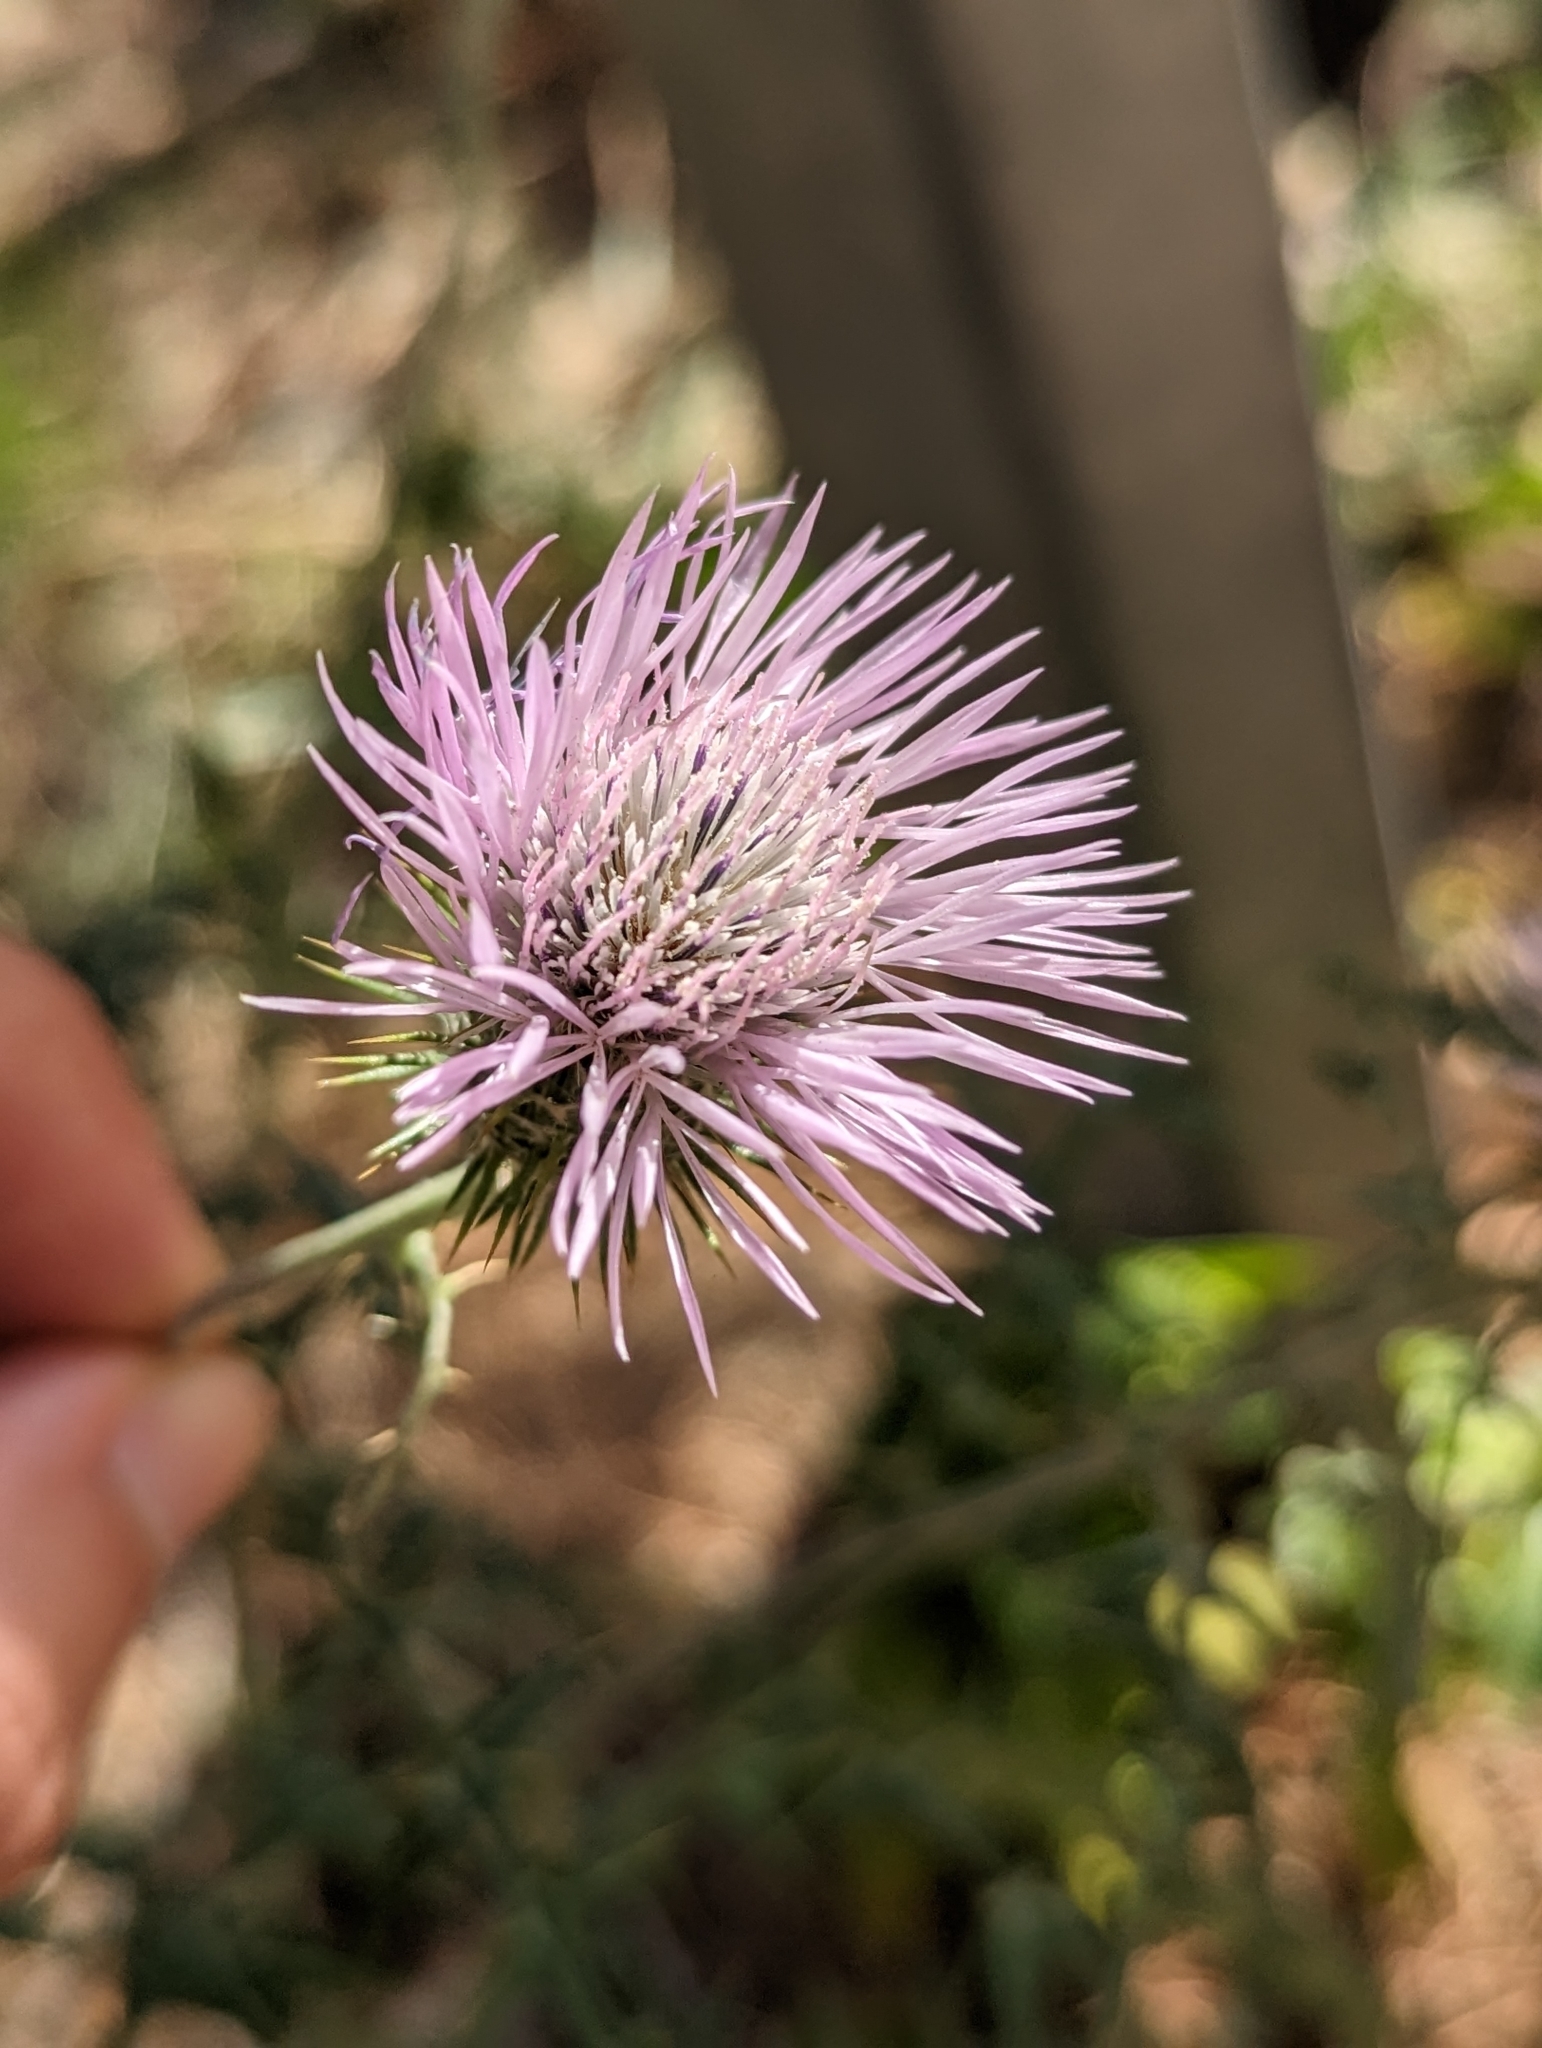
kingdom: Plantae
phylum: Tracheophyta
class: Magnoliopsida
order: Asterales
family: Asteraceae
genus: Galactites
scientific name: Galactites tomentosa
